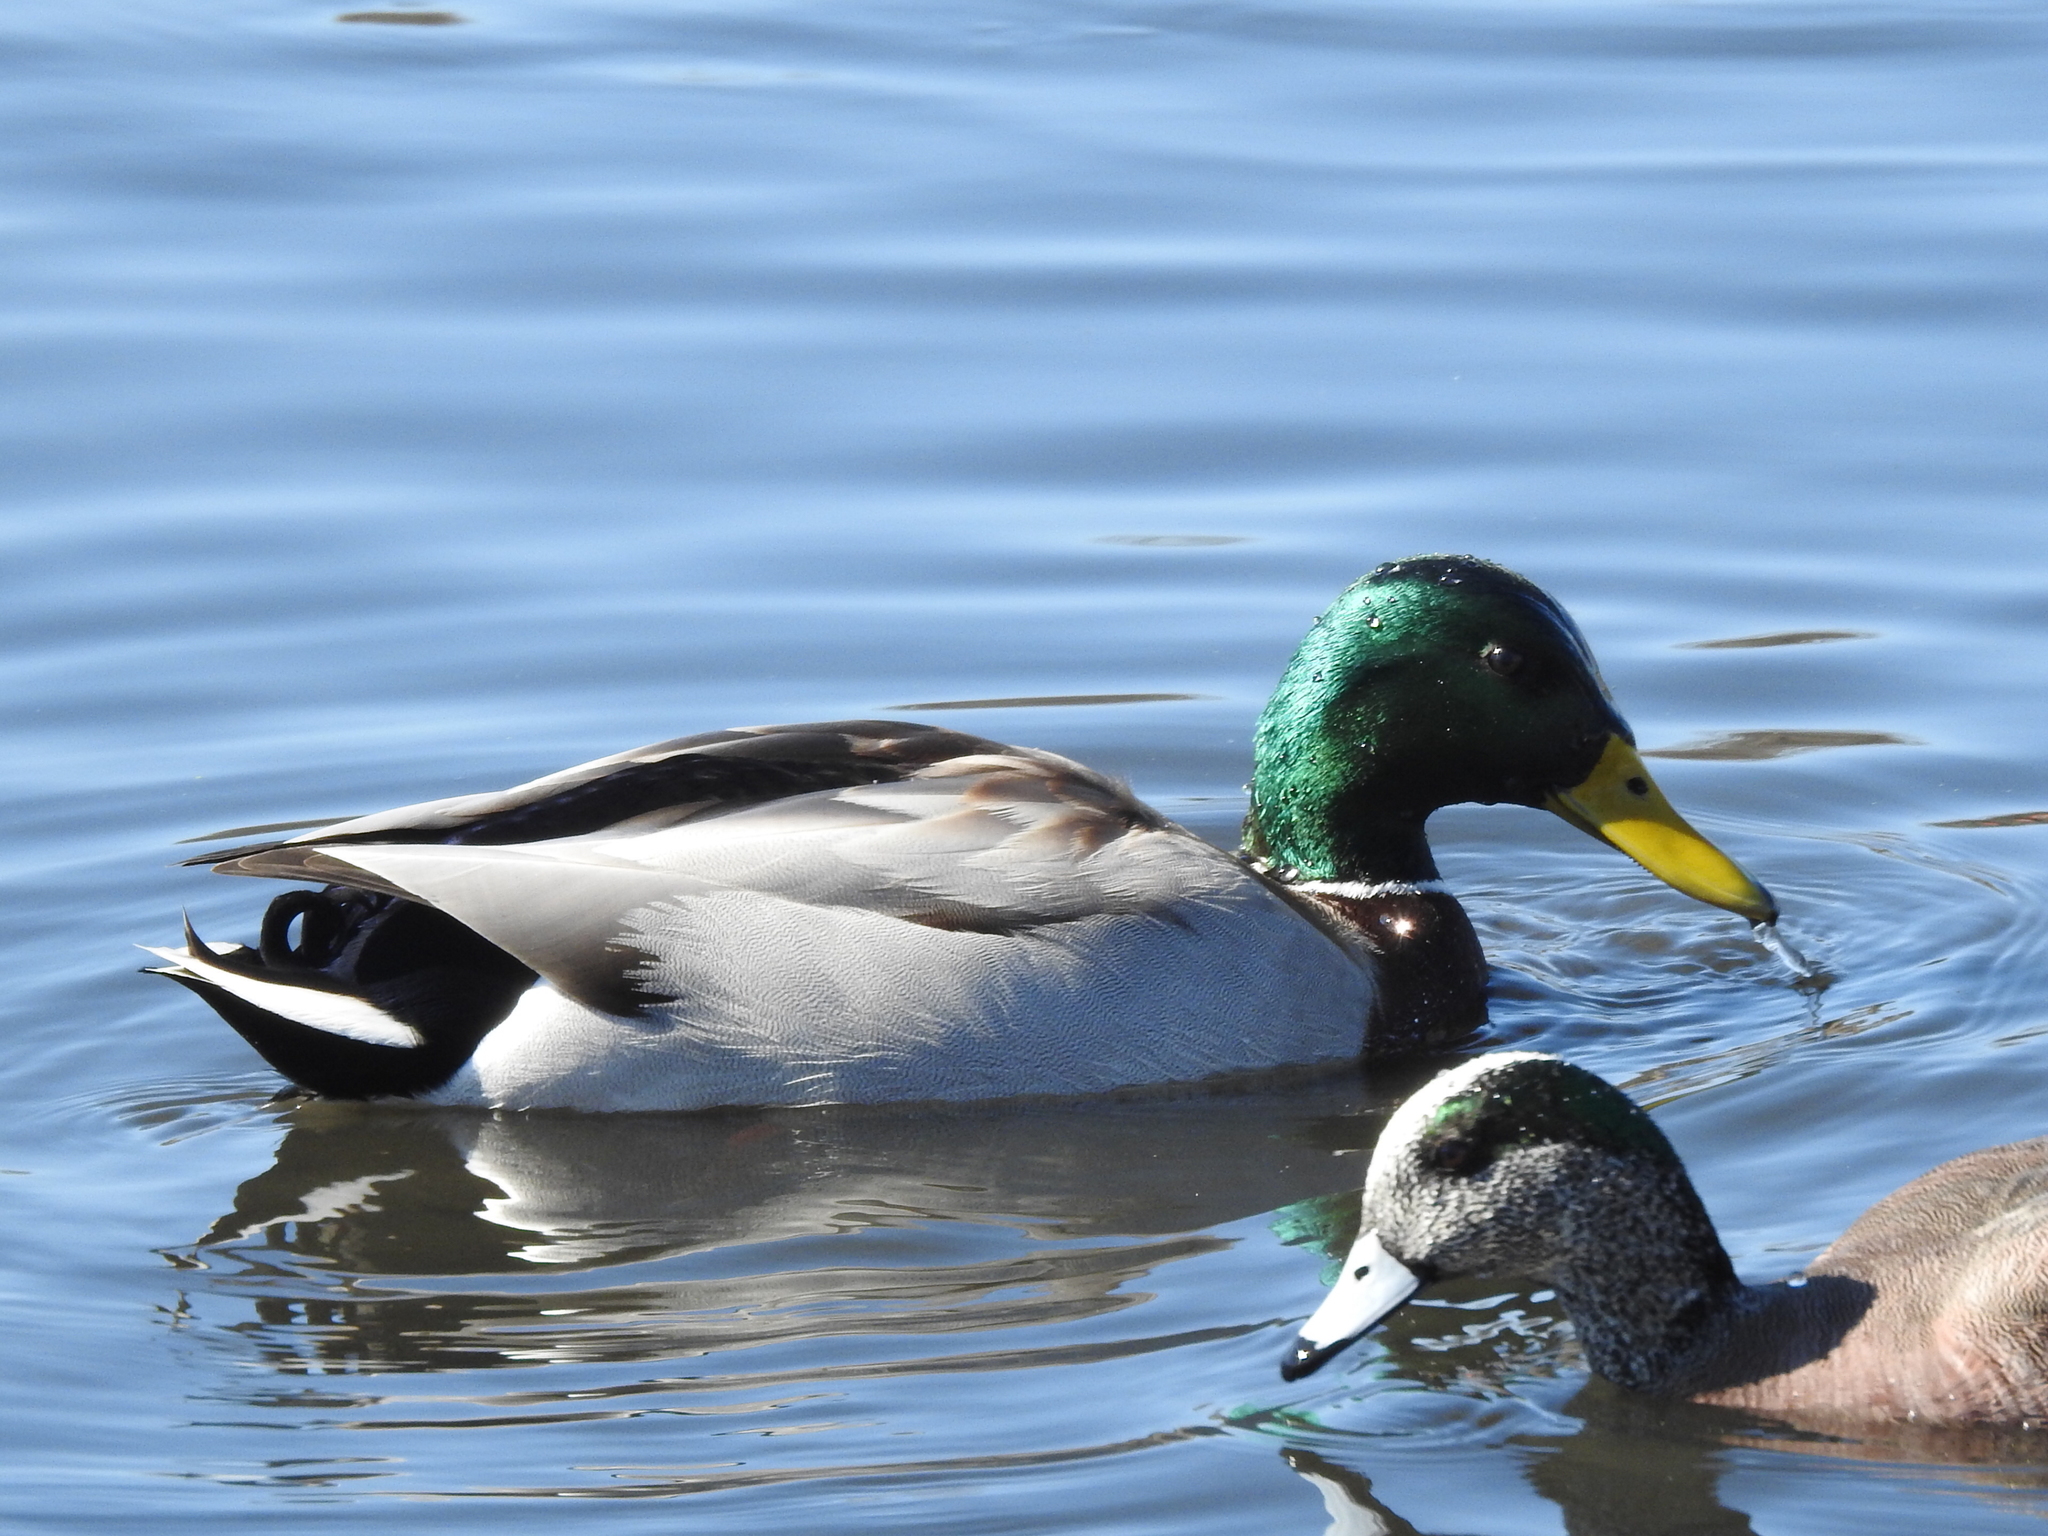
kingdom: Animalia
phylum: Chordata
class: Aves
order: Anseriformes
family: Anatidae
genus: Anas
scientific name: Anas platyrhynchos
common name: Mallard
